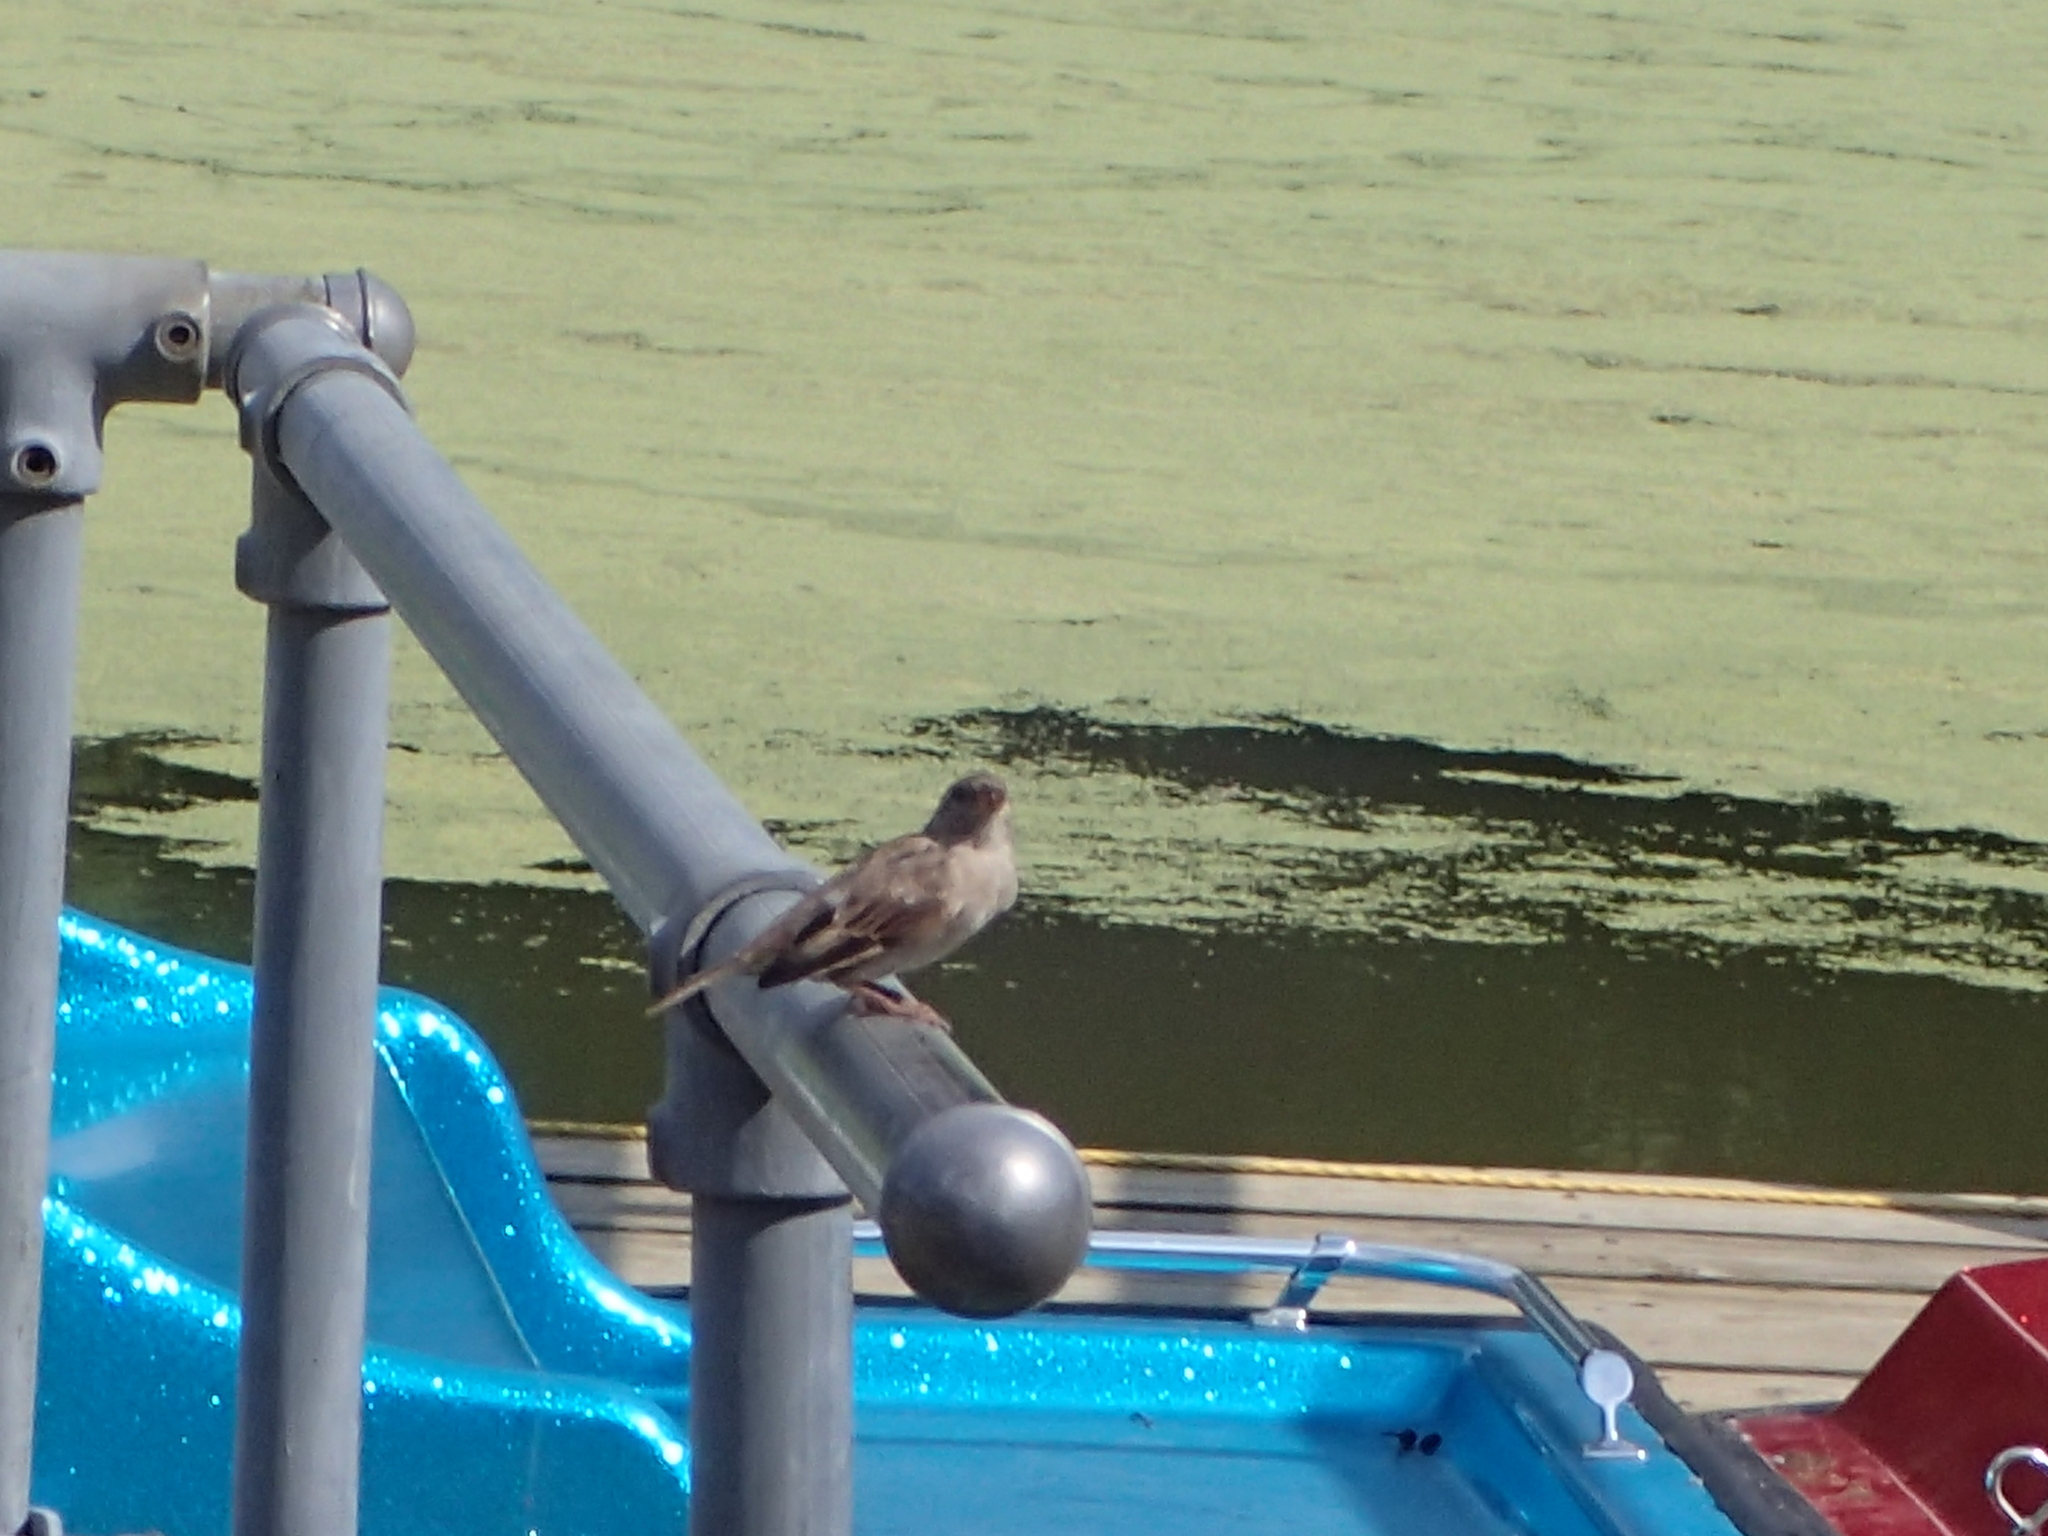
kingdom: Animalia
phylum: Chordata
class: Aves
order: Passeriformes
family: Passeridae
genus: Passer
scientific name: Passer domesticus
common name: House sparrow
